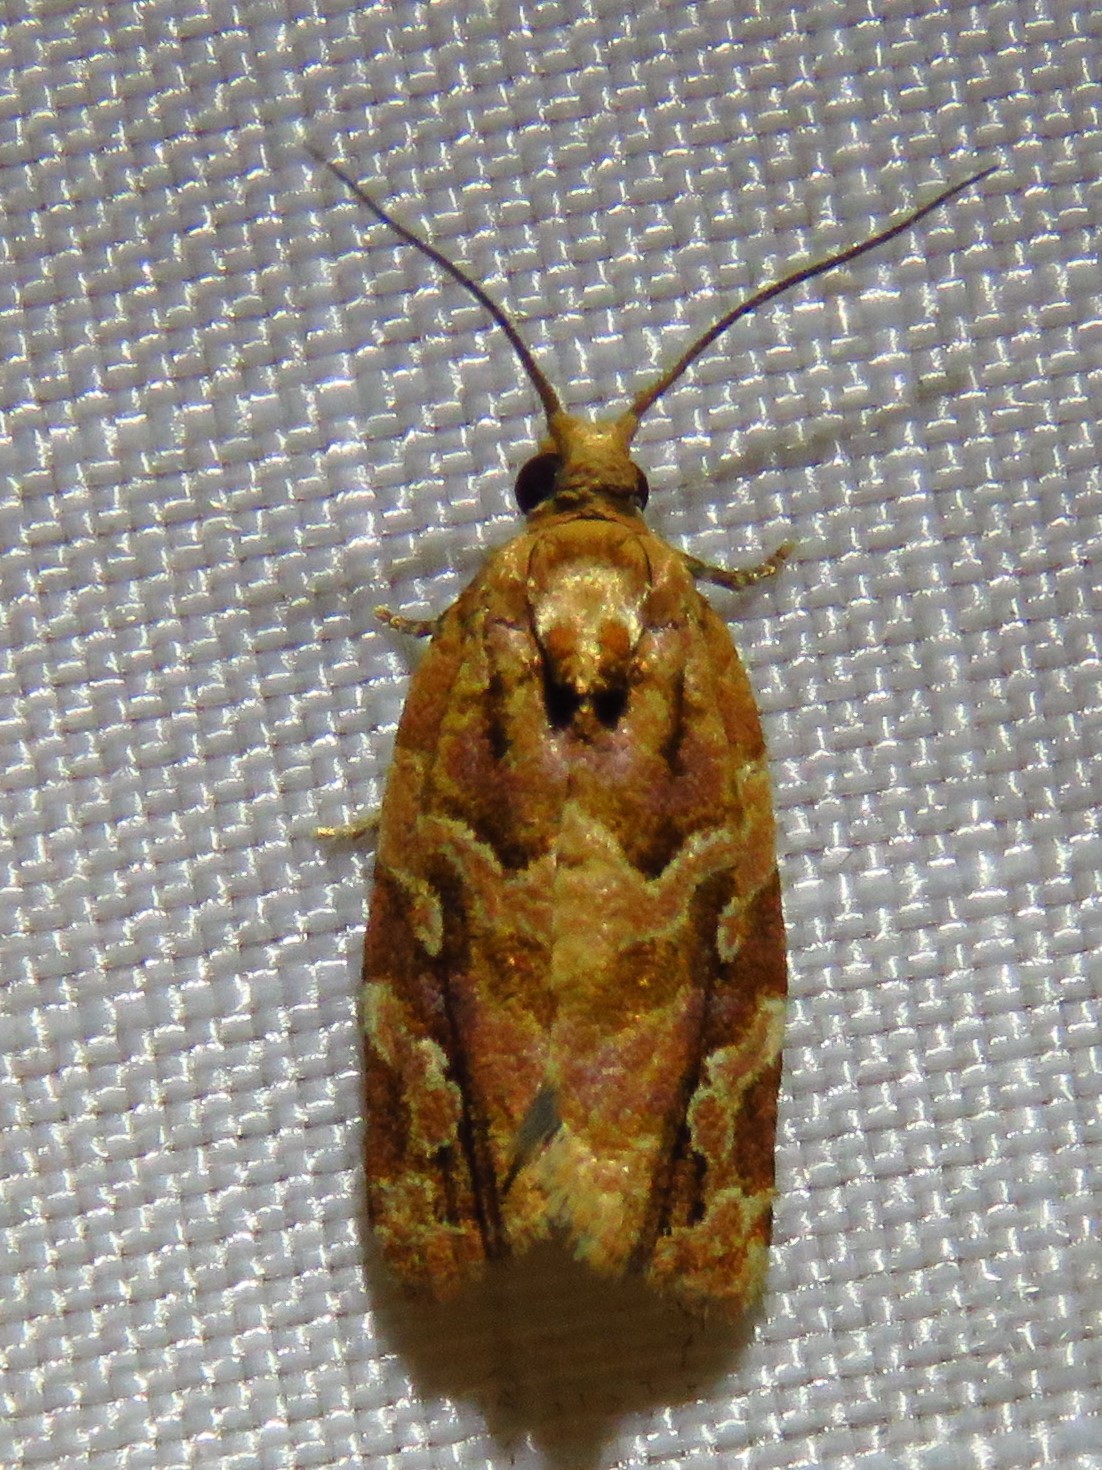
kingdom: Animalia
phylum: Arthropoda
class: Insecta
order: Lepidoptera
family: Tortricidae
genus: Argyrotaenia
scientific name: Argyrotaenia hodgesi
